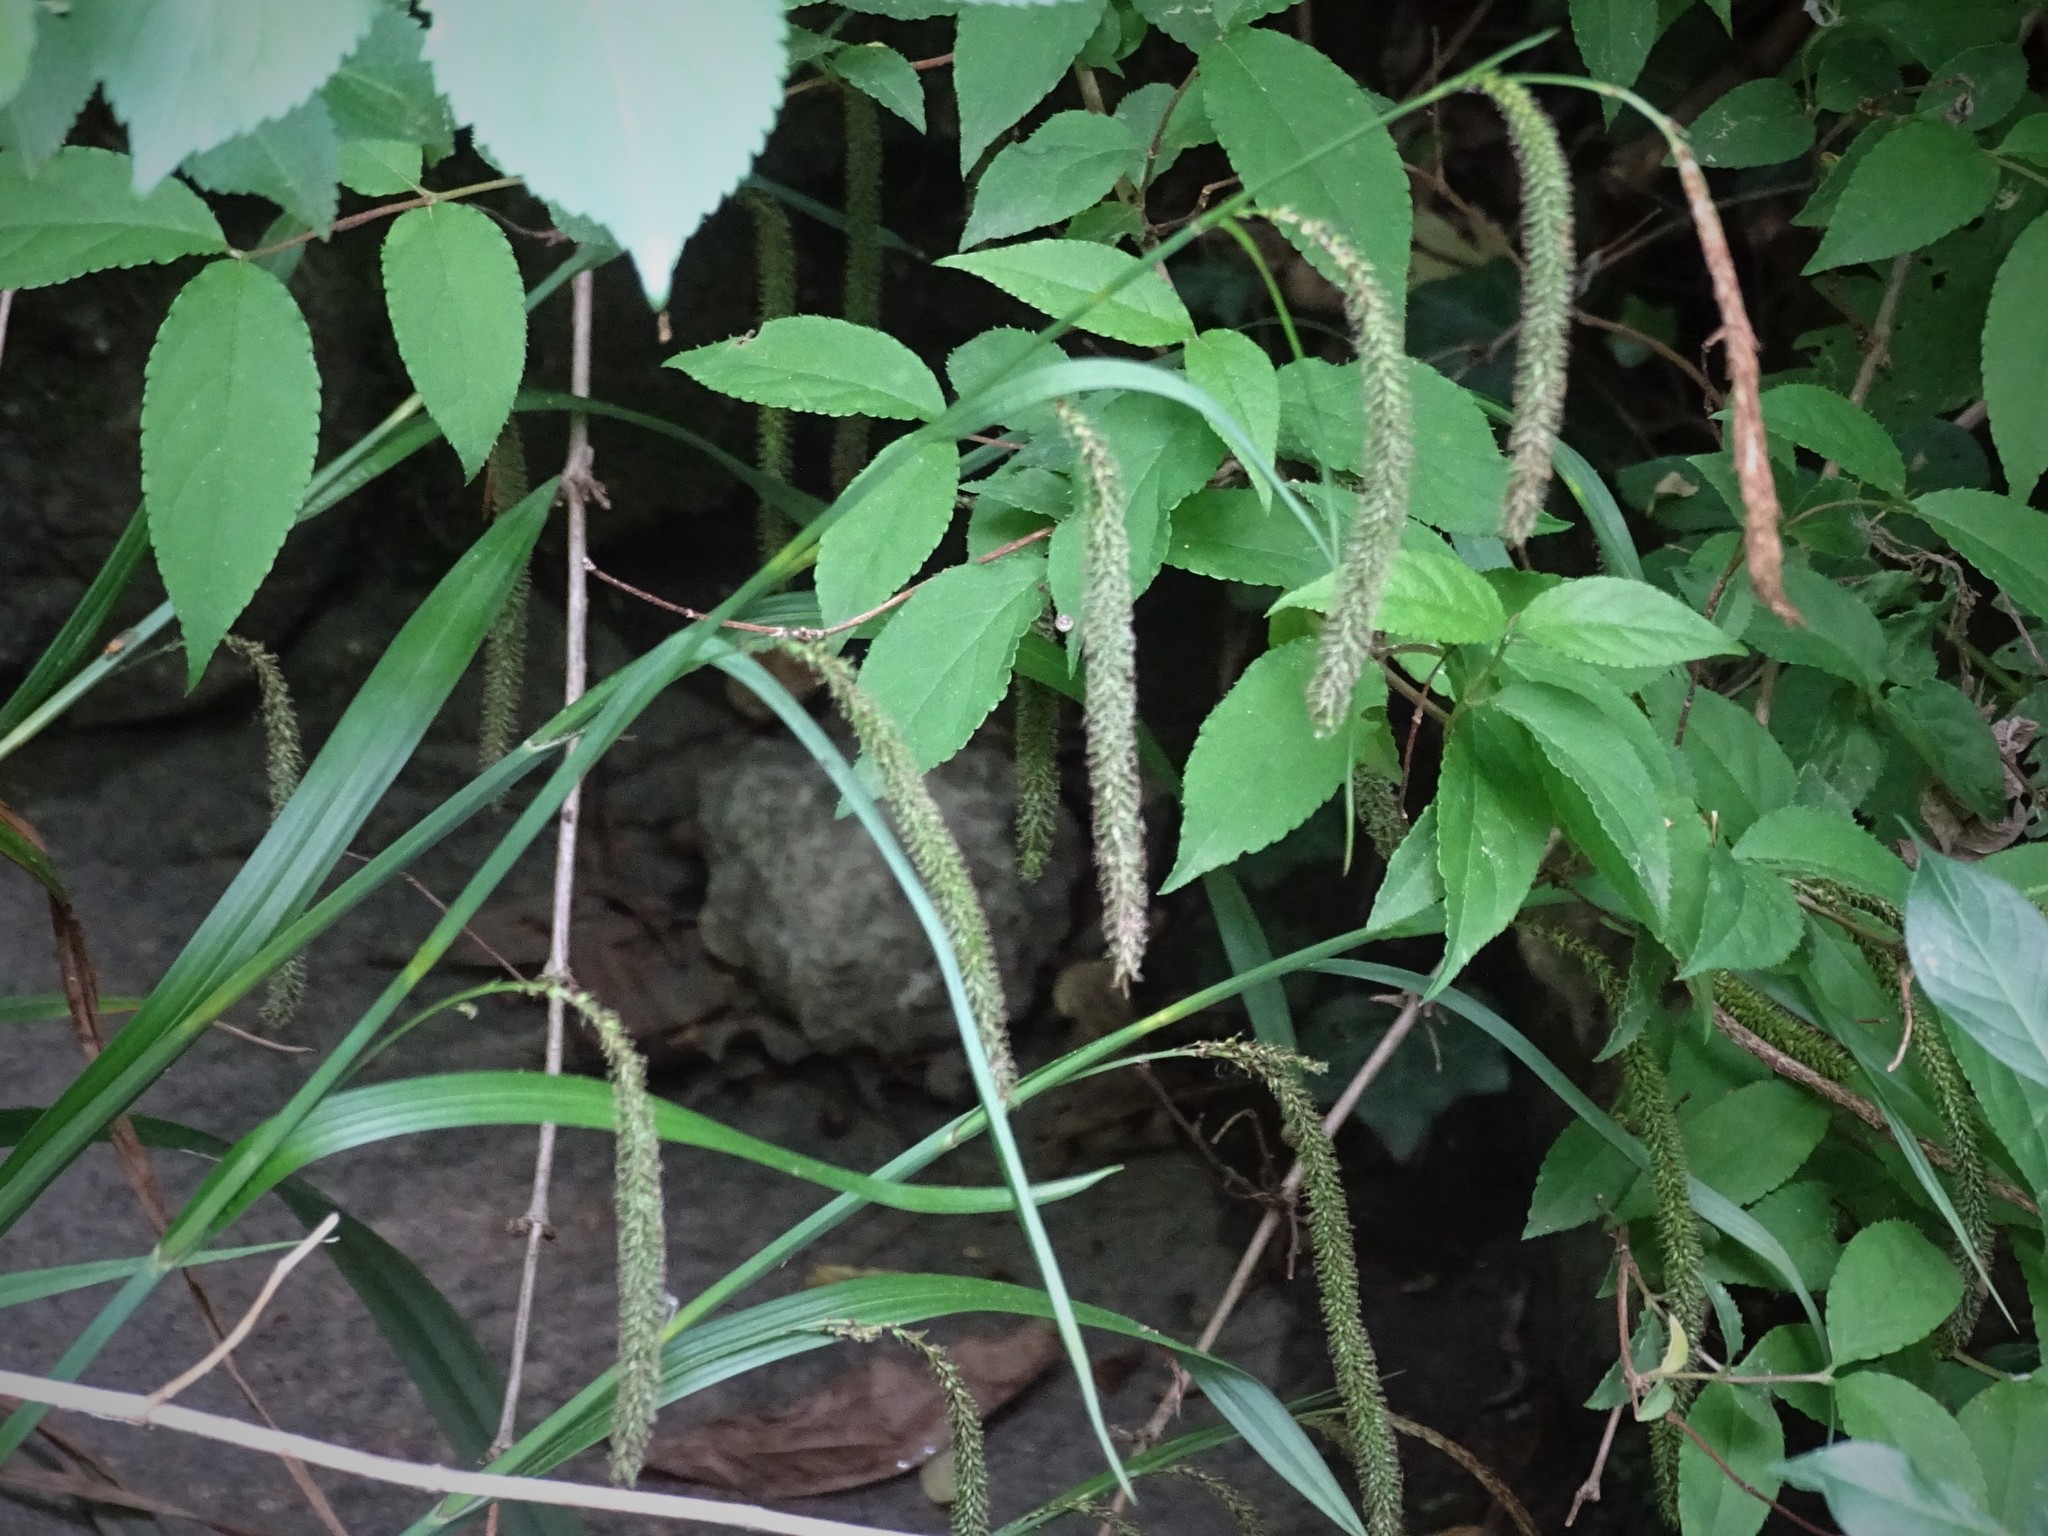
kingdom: Plantae
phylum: Tracheophyta
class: Liliopsida
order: Poales
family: Cyperaceae
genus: Carex
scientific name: Carex pendula
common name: Pendulous sedge
